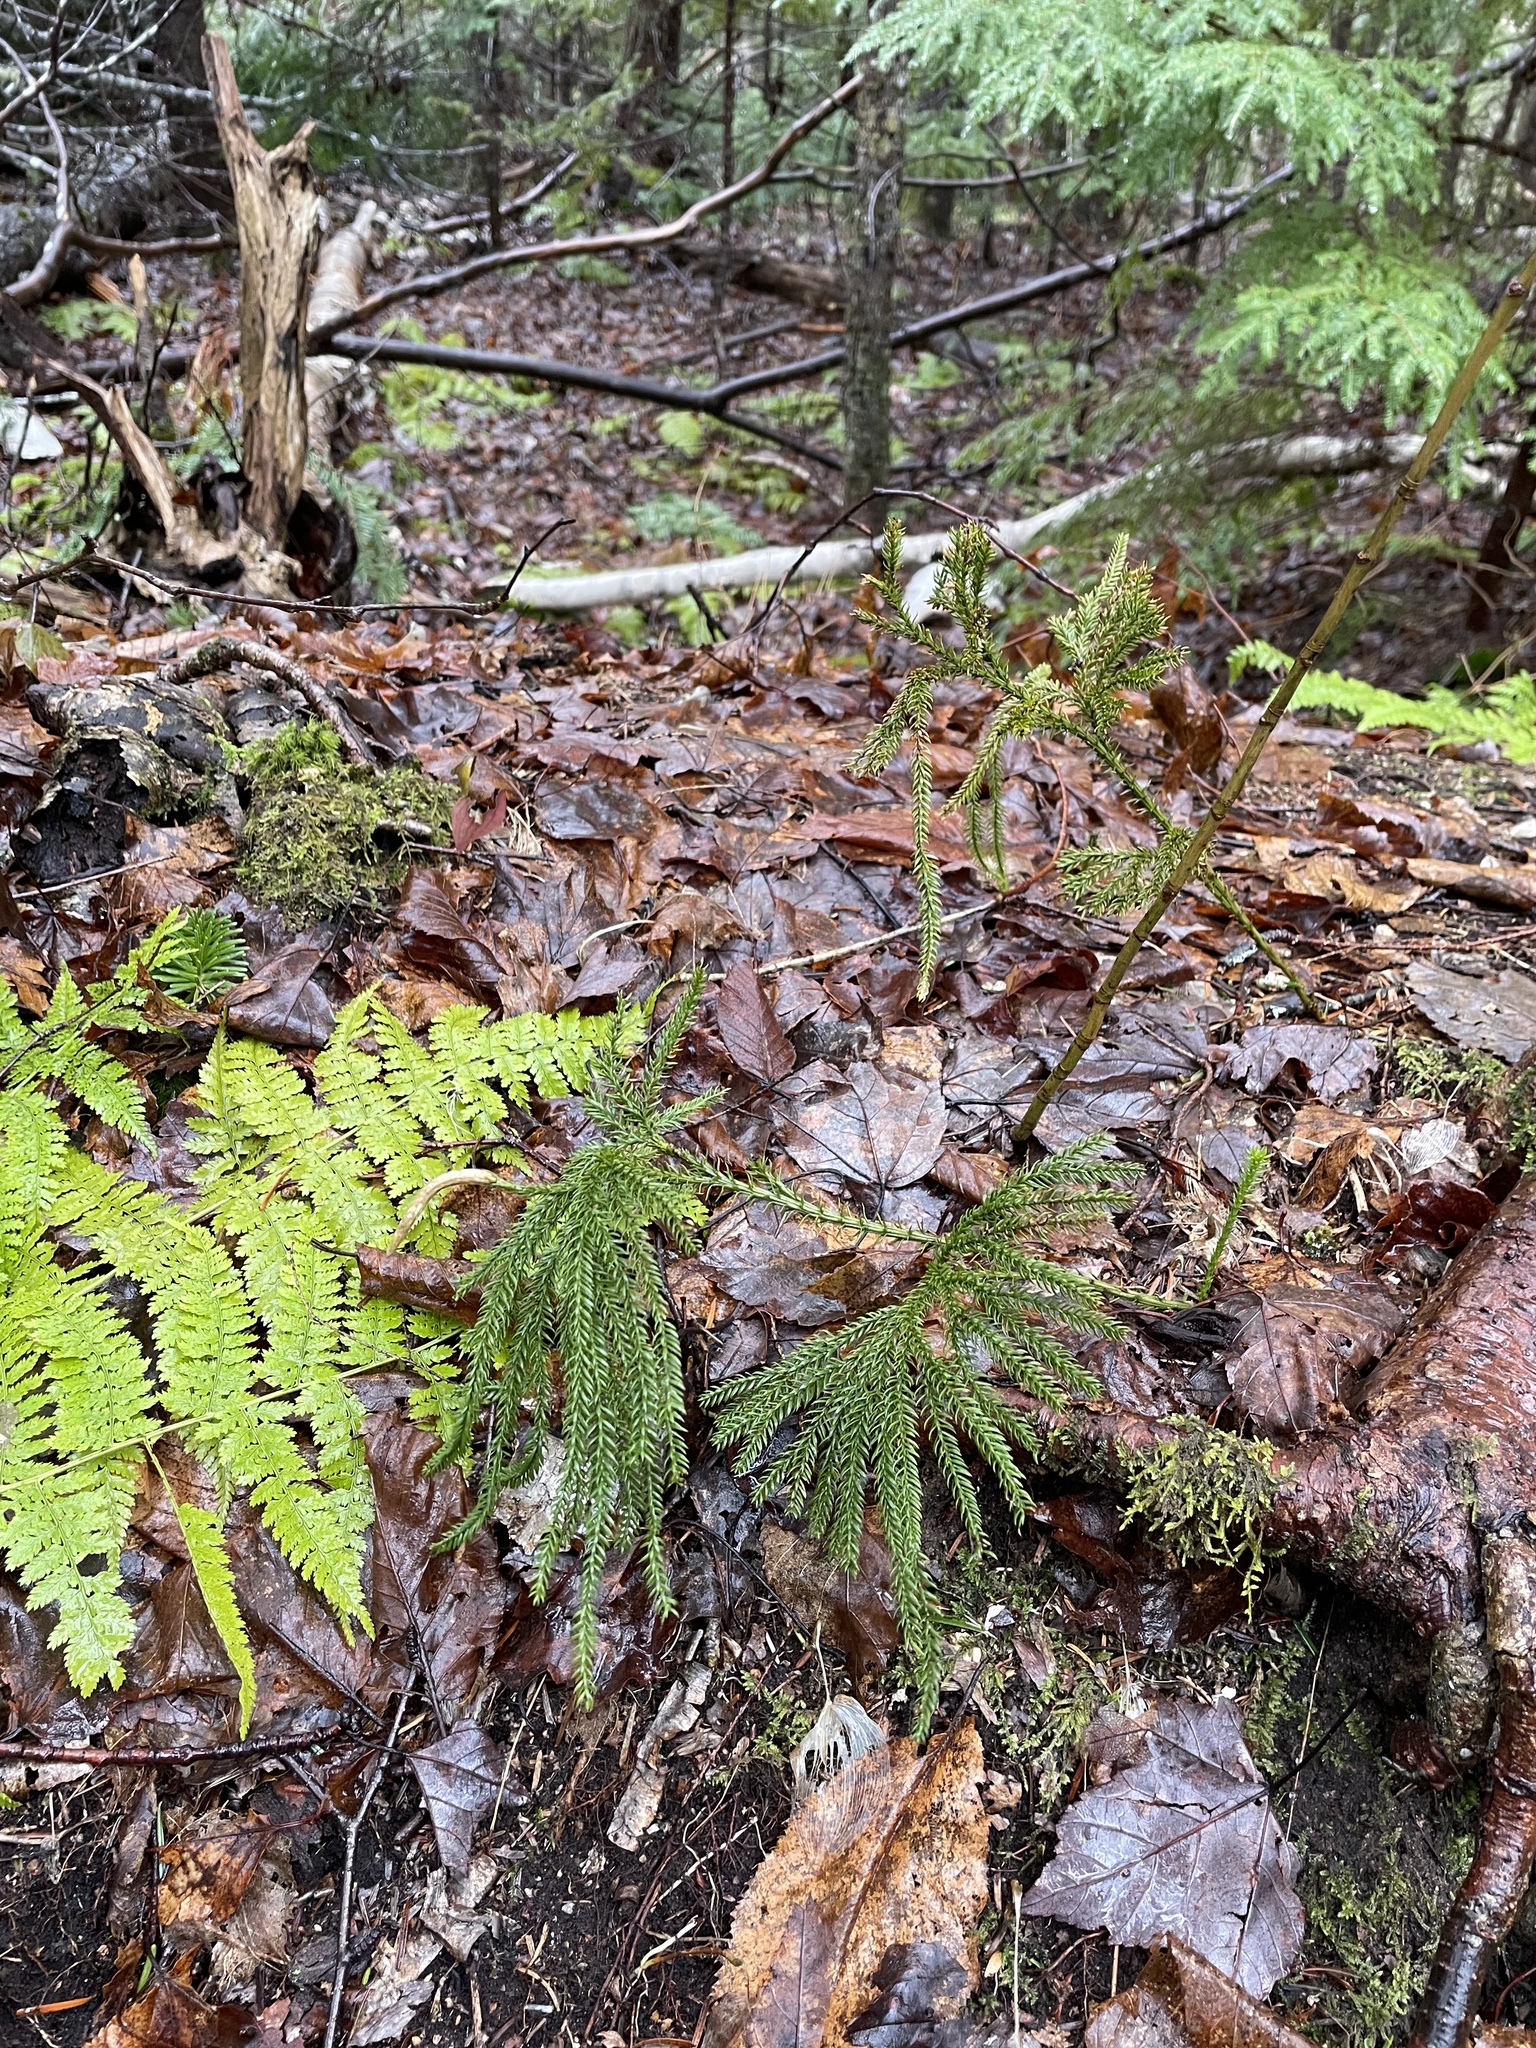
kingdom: Plantae
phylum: Tracheophyta
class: Lycopodiopsida
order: Lycopodiales
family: Lycopodiaceae
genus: Dendrolycopodium
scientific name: Dendrolycopodium dendroideum
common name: Northern tree-clubmoss
